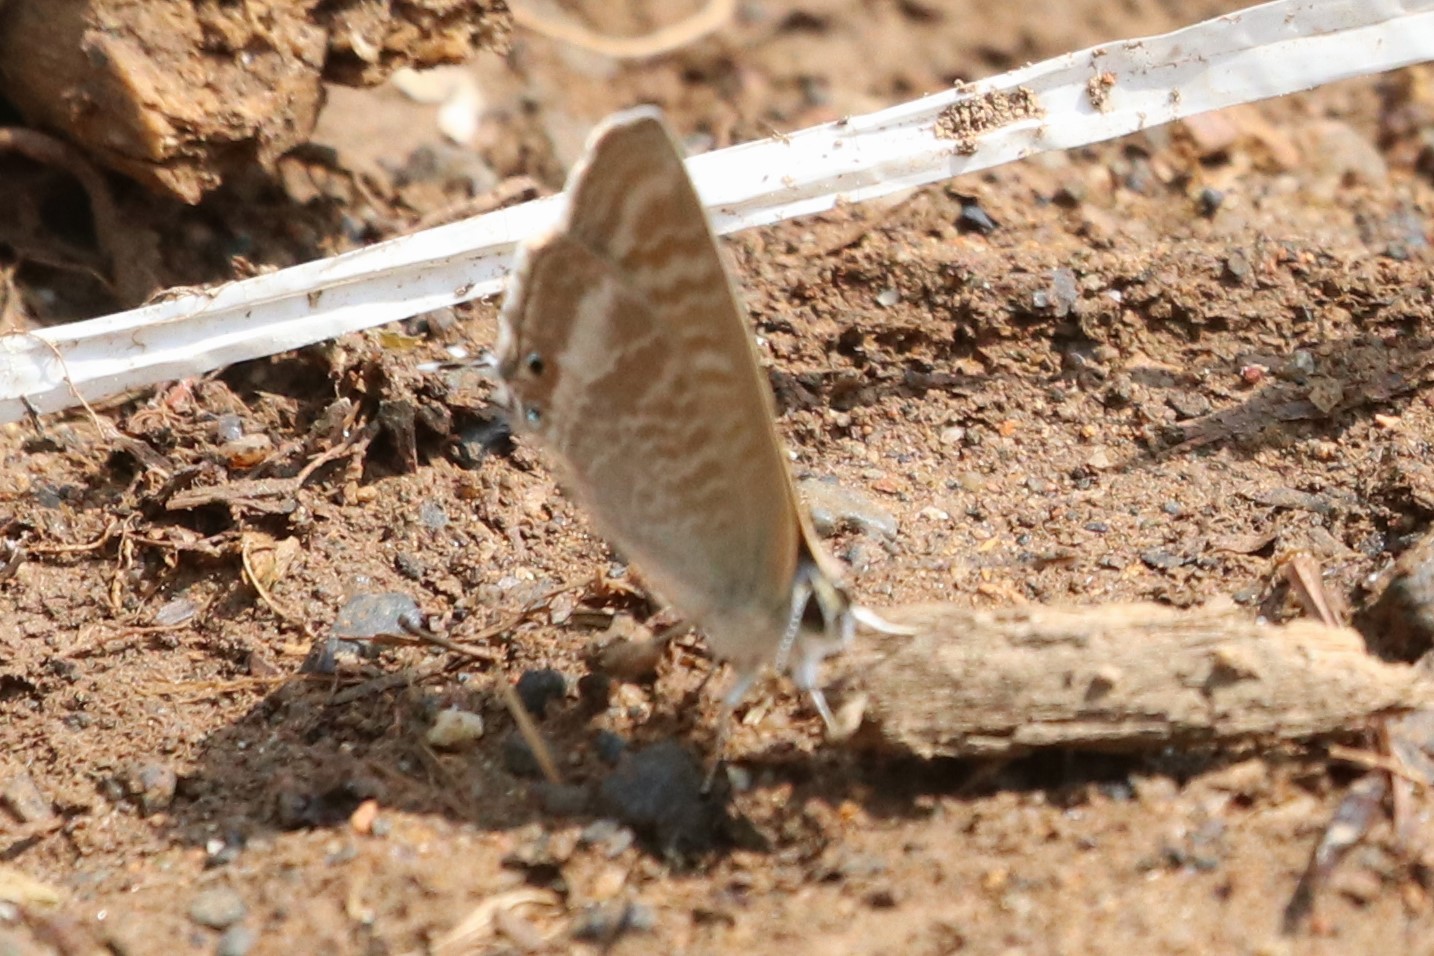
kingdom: Animalia
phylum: Arthropoda
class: Insecta
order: Lepidoptera
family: Lycaenidae
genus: Lampides
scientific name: Lampides boeticus
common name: Long-tailed blue
